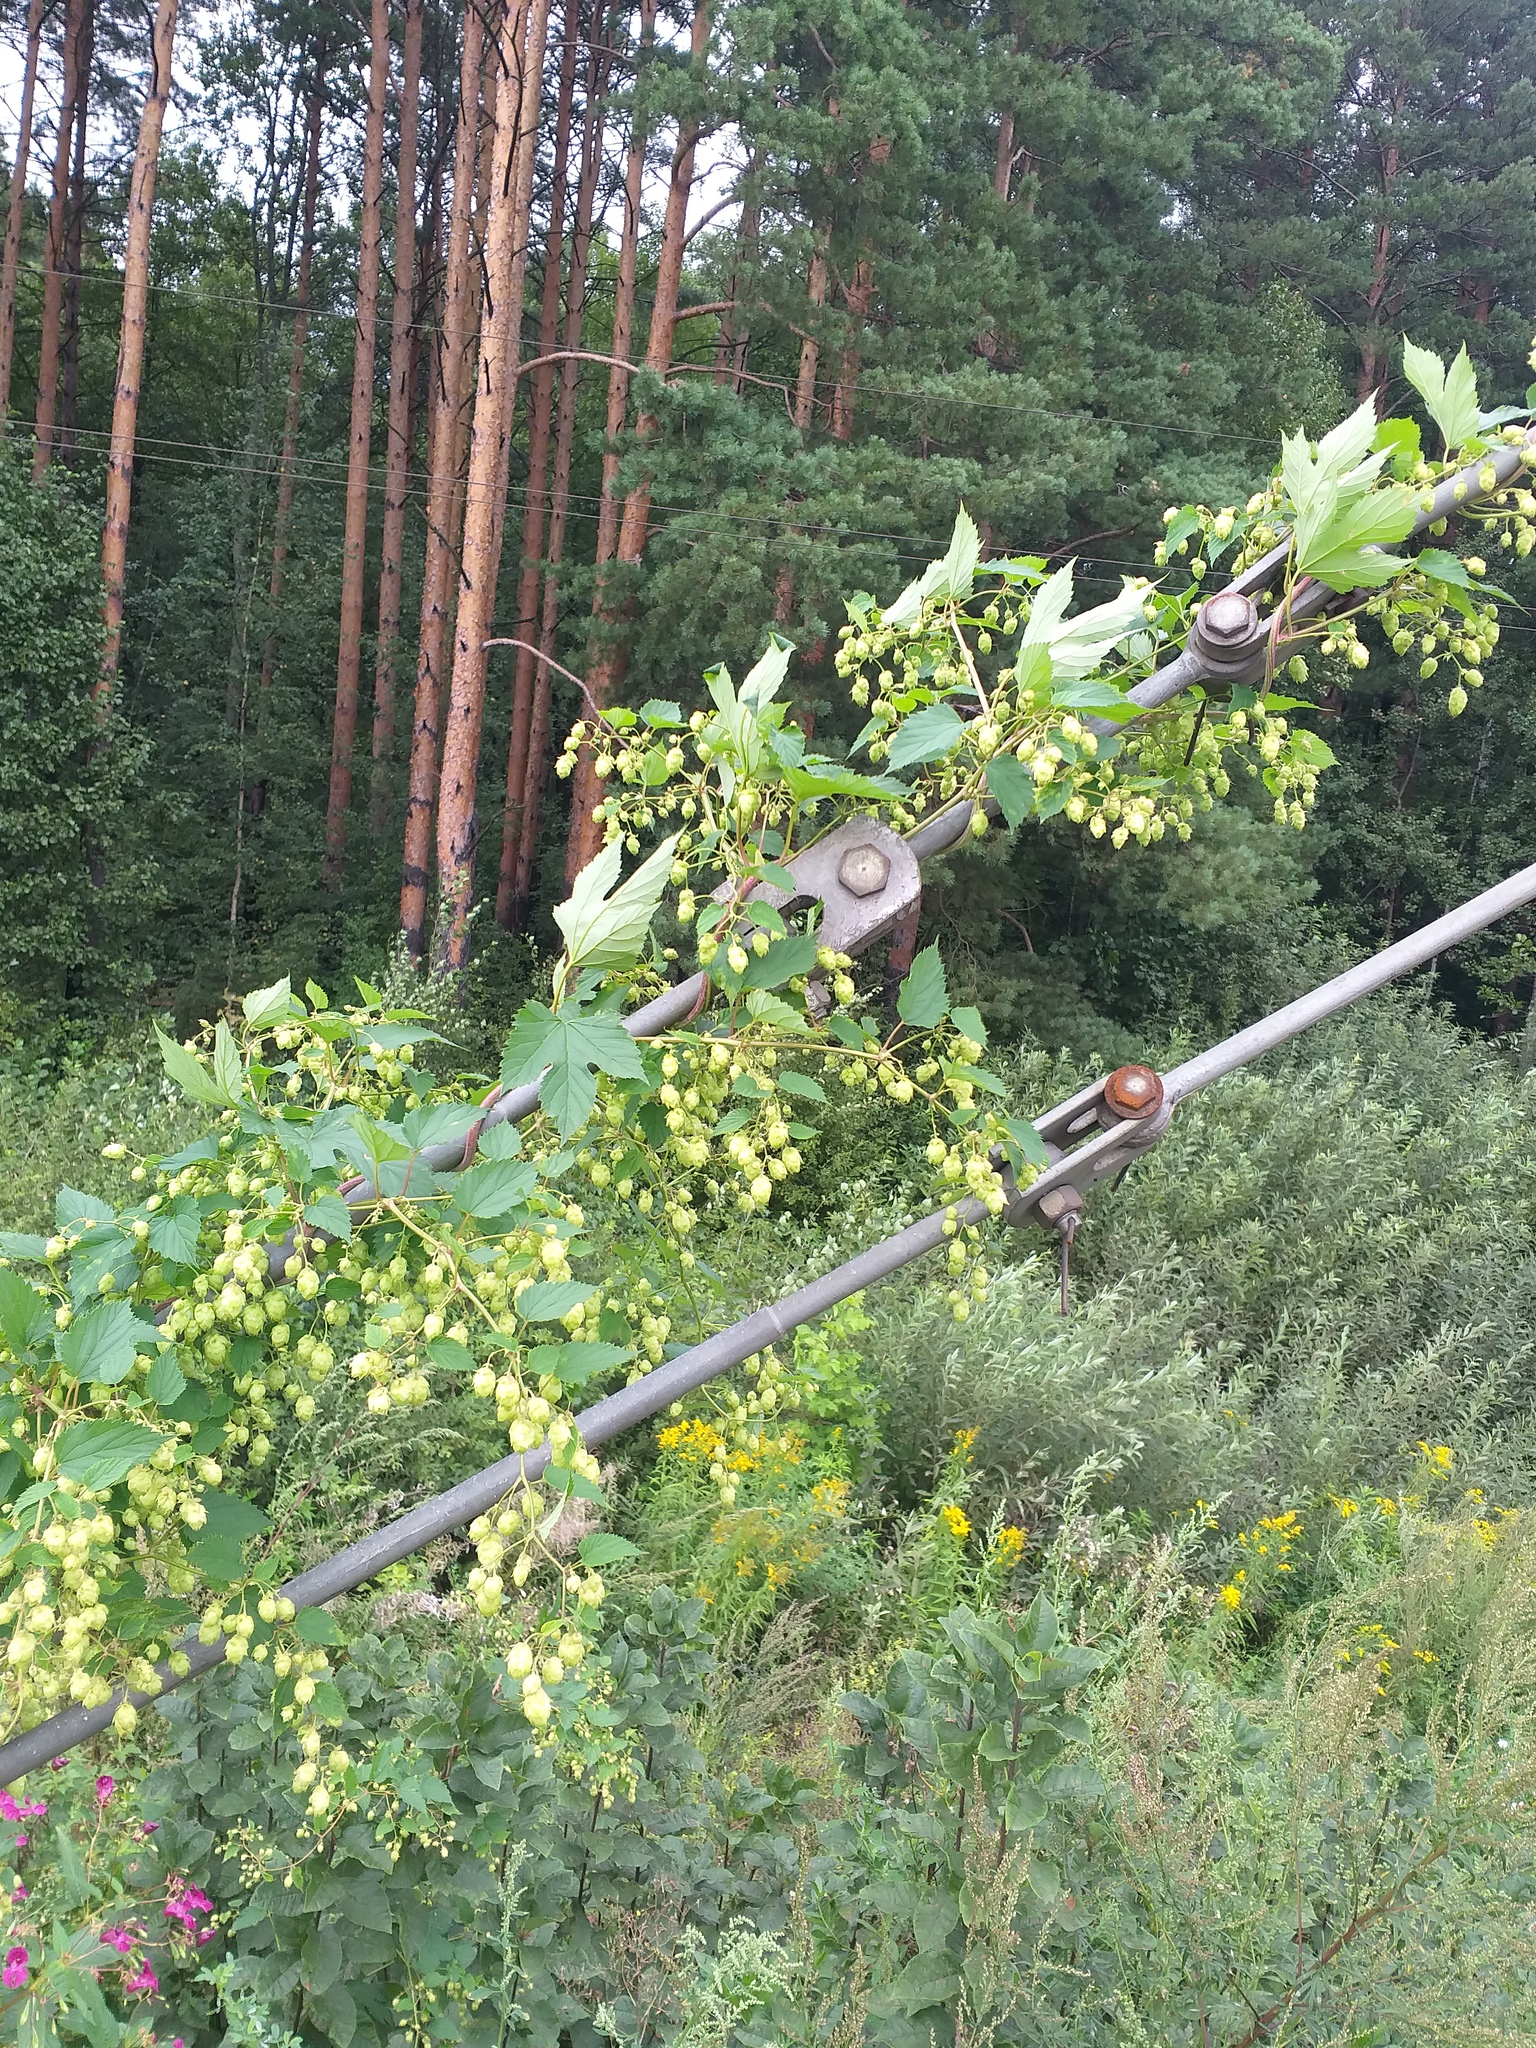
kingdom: Plantae
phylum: Tracheophyta
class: Magnoliopsida
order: Rosales
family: Cannabaceae
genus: Humulus
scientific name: Humulus lupulus
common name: Hop
